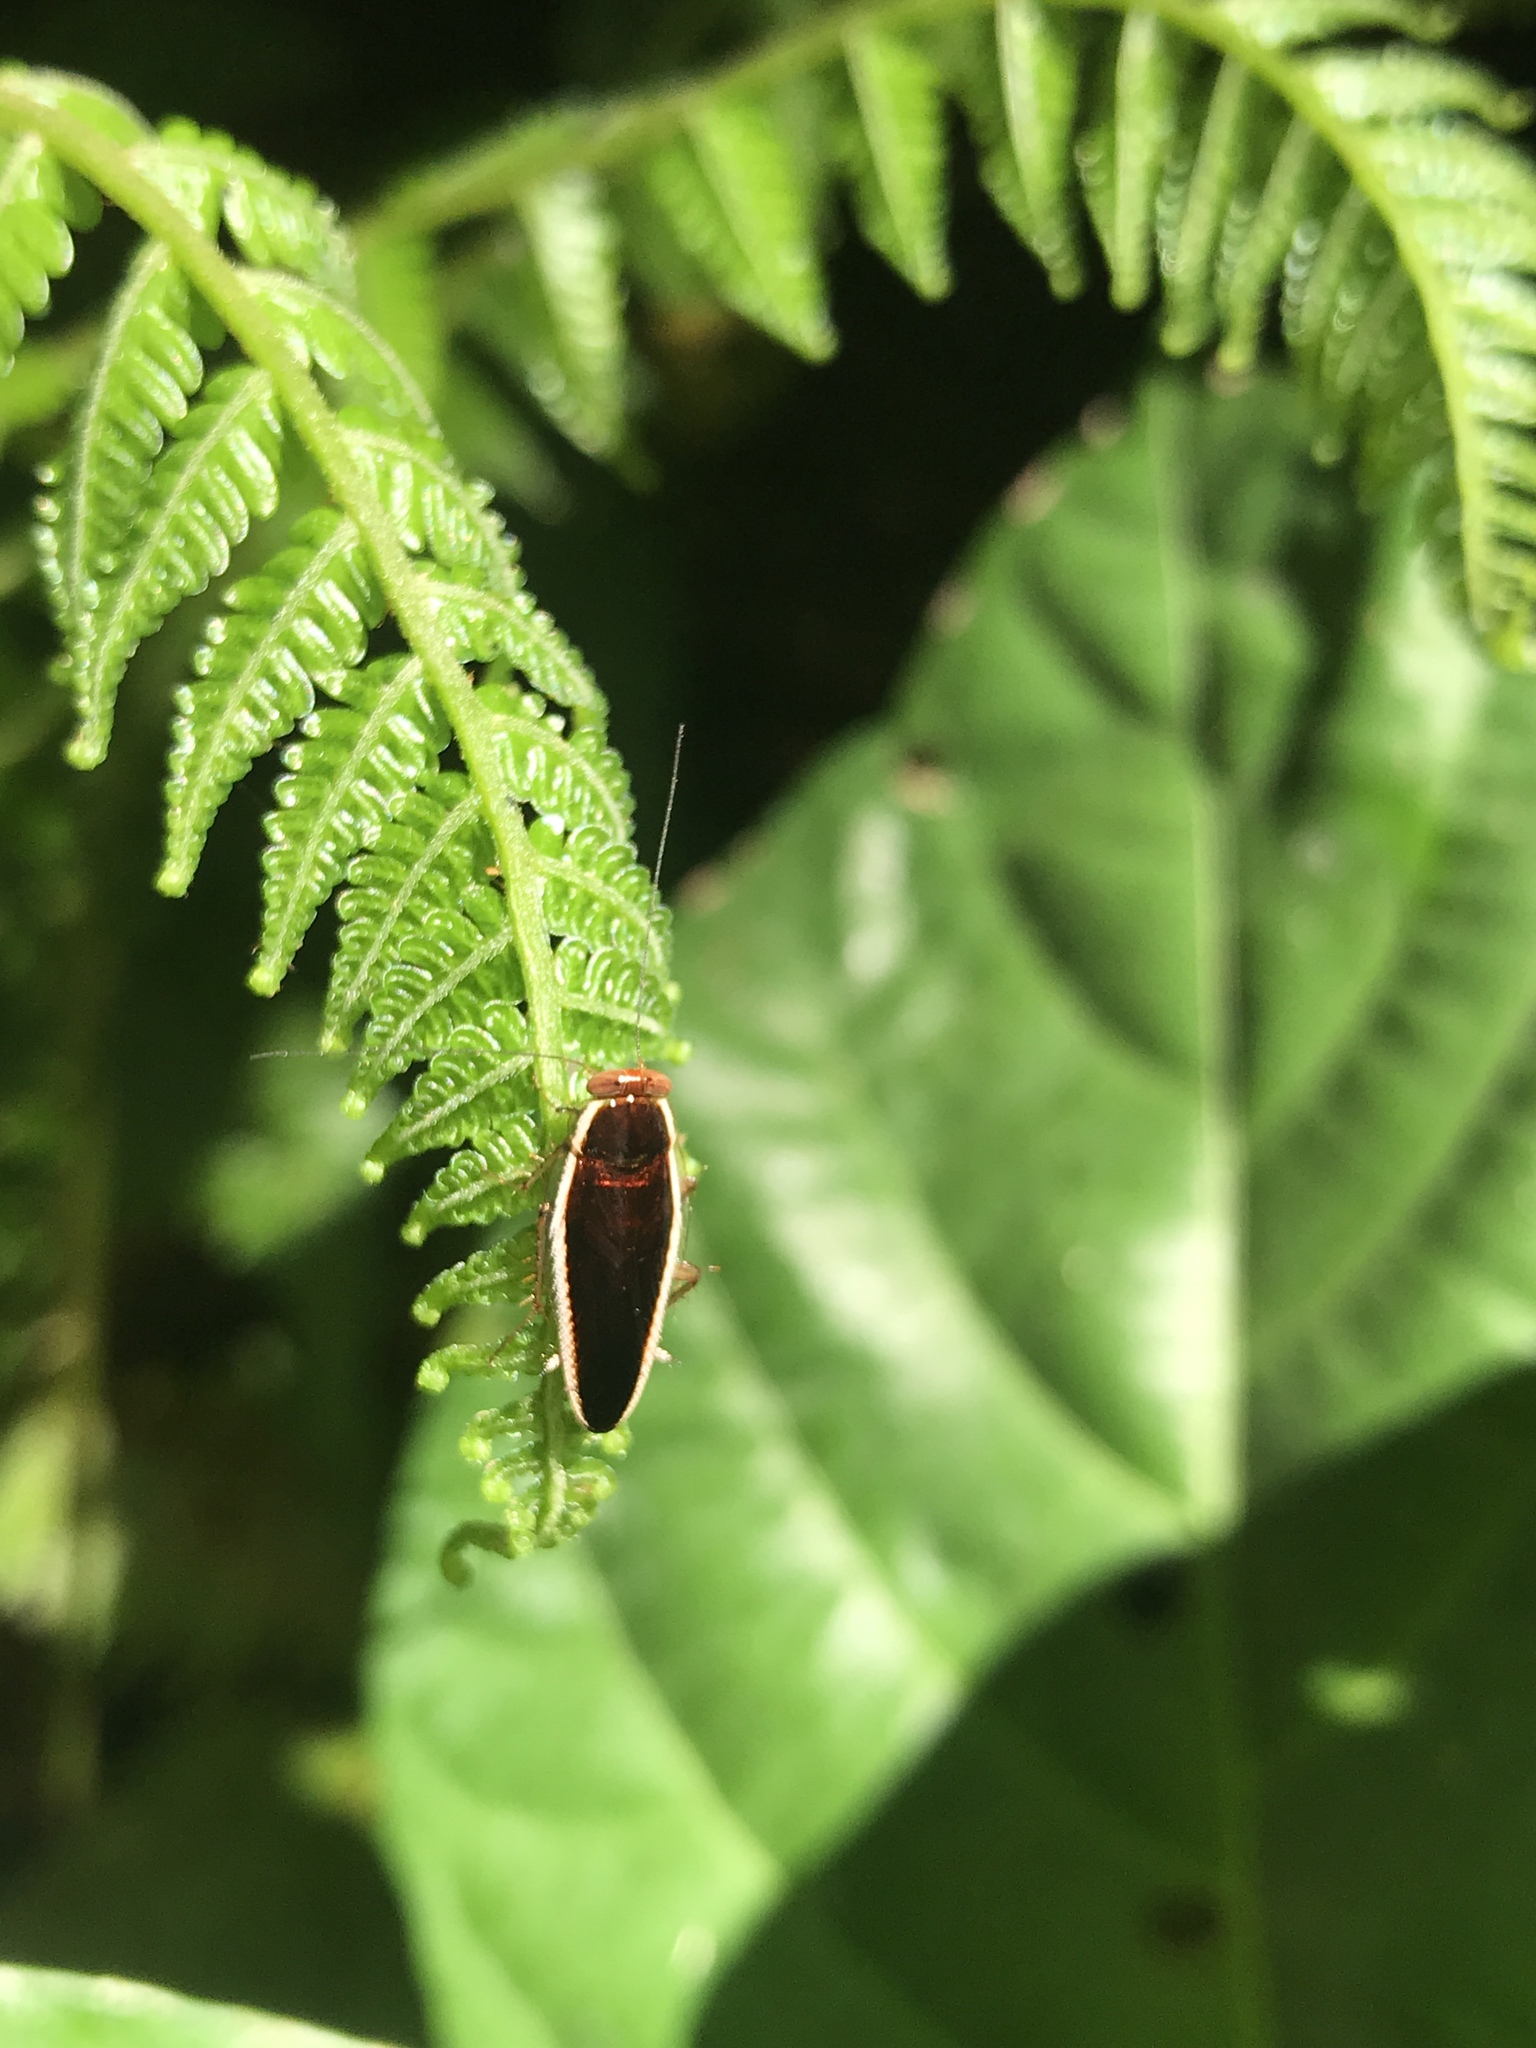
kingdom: Animalia
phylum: Arthropoda
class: Insecta
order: Blattodea
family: Ectobiidae
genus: Pseudophyllodromia
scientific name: Pseudophyllodromia laticeps
